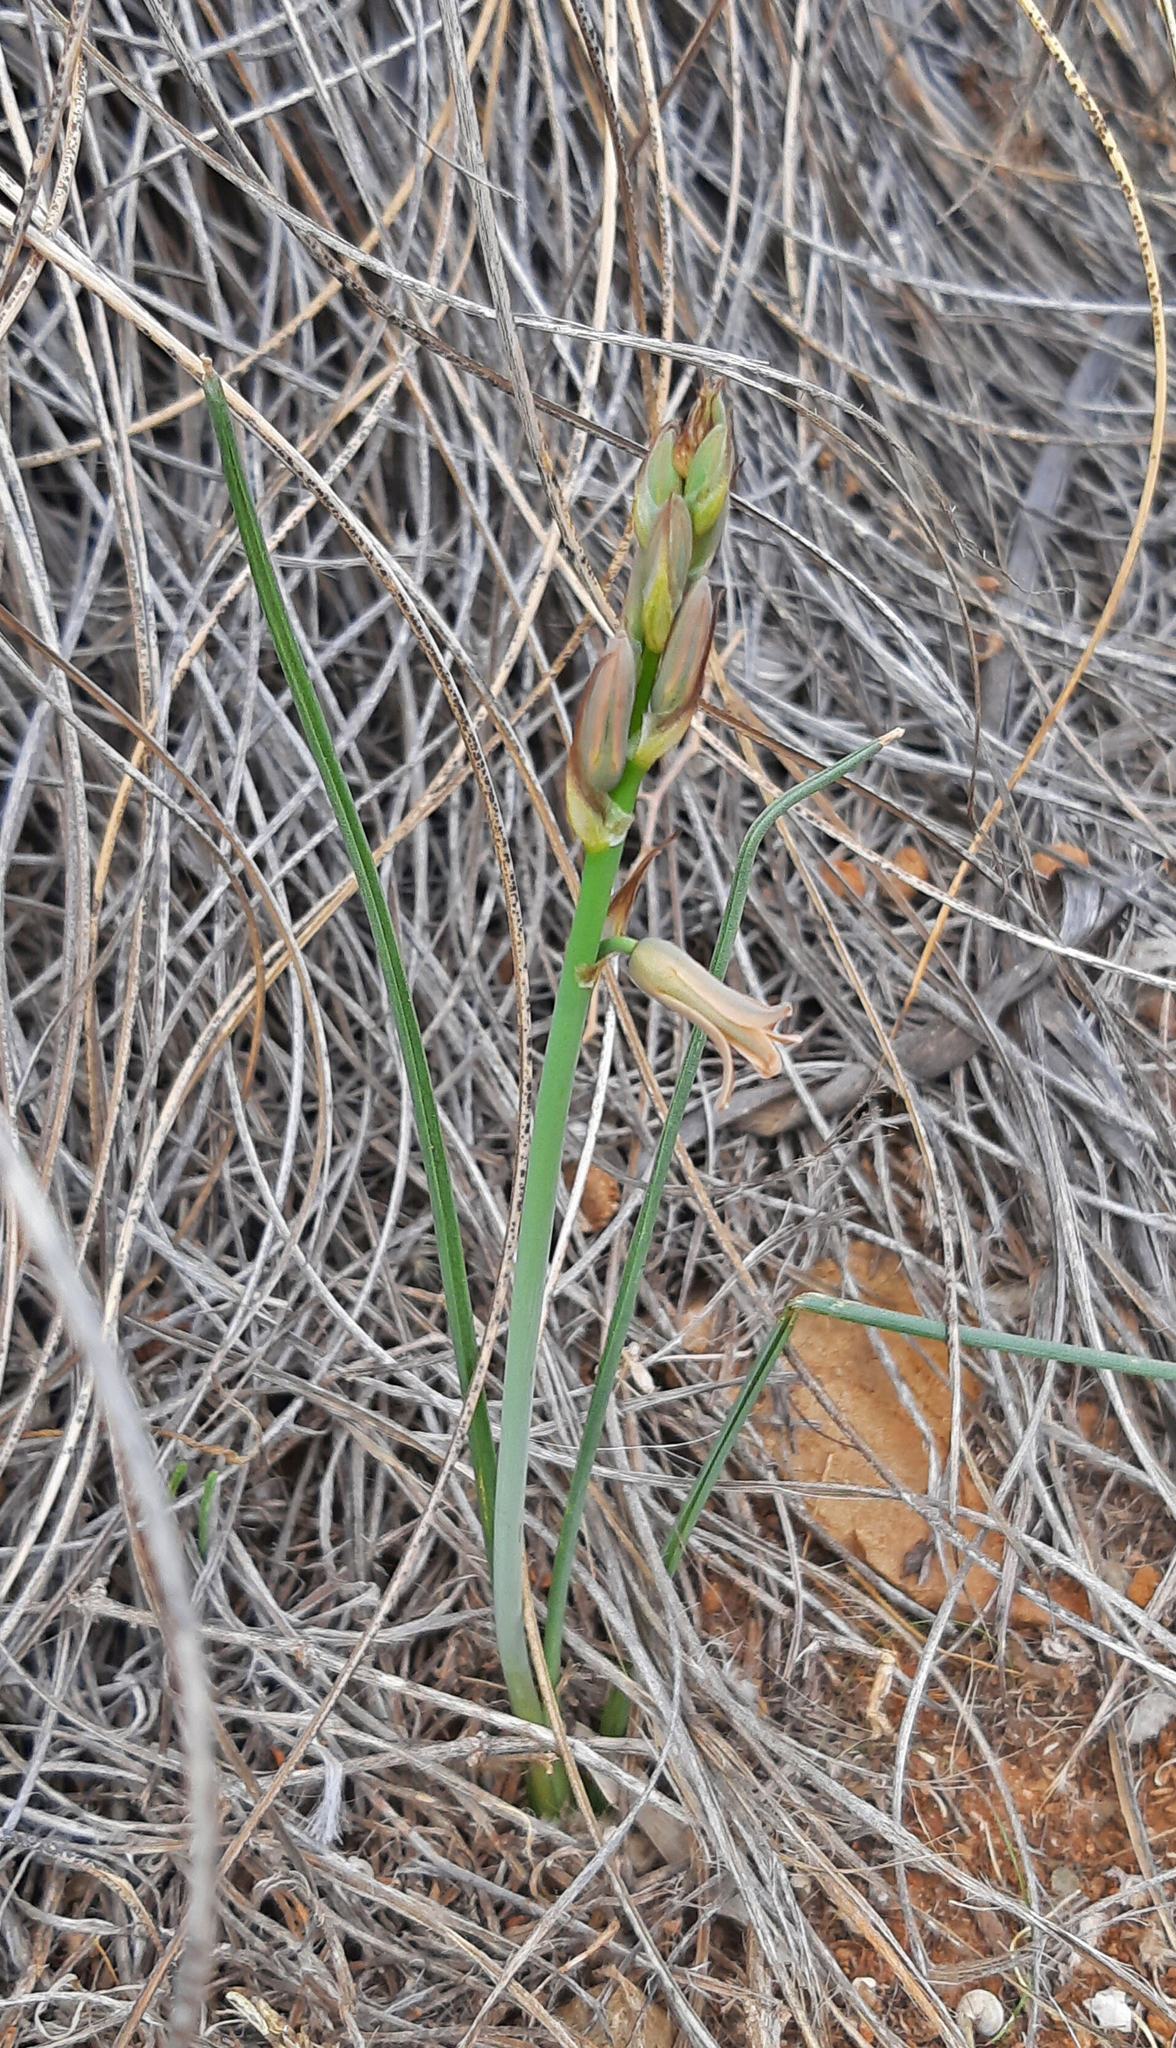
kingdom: Plantae
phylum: Tracheophyta
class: Liliopsida
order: Asparagales
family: Asparagaceae
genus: Dipcadi
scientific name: Dipcadi serotinum
